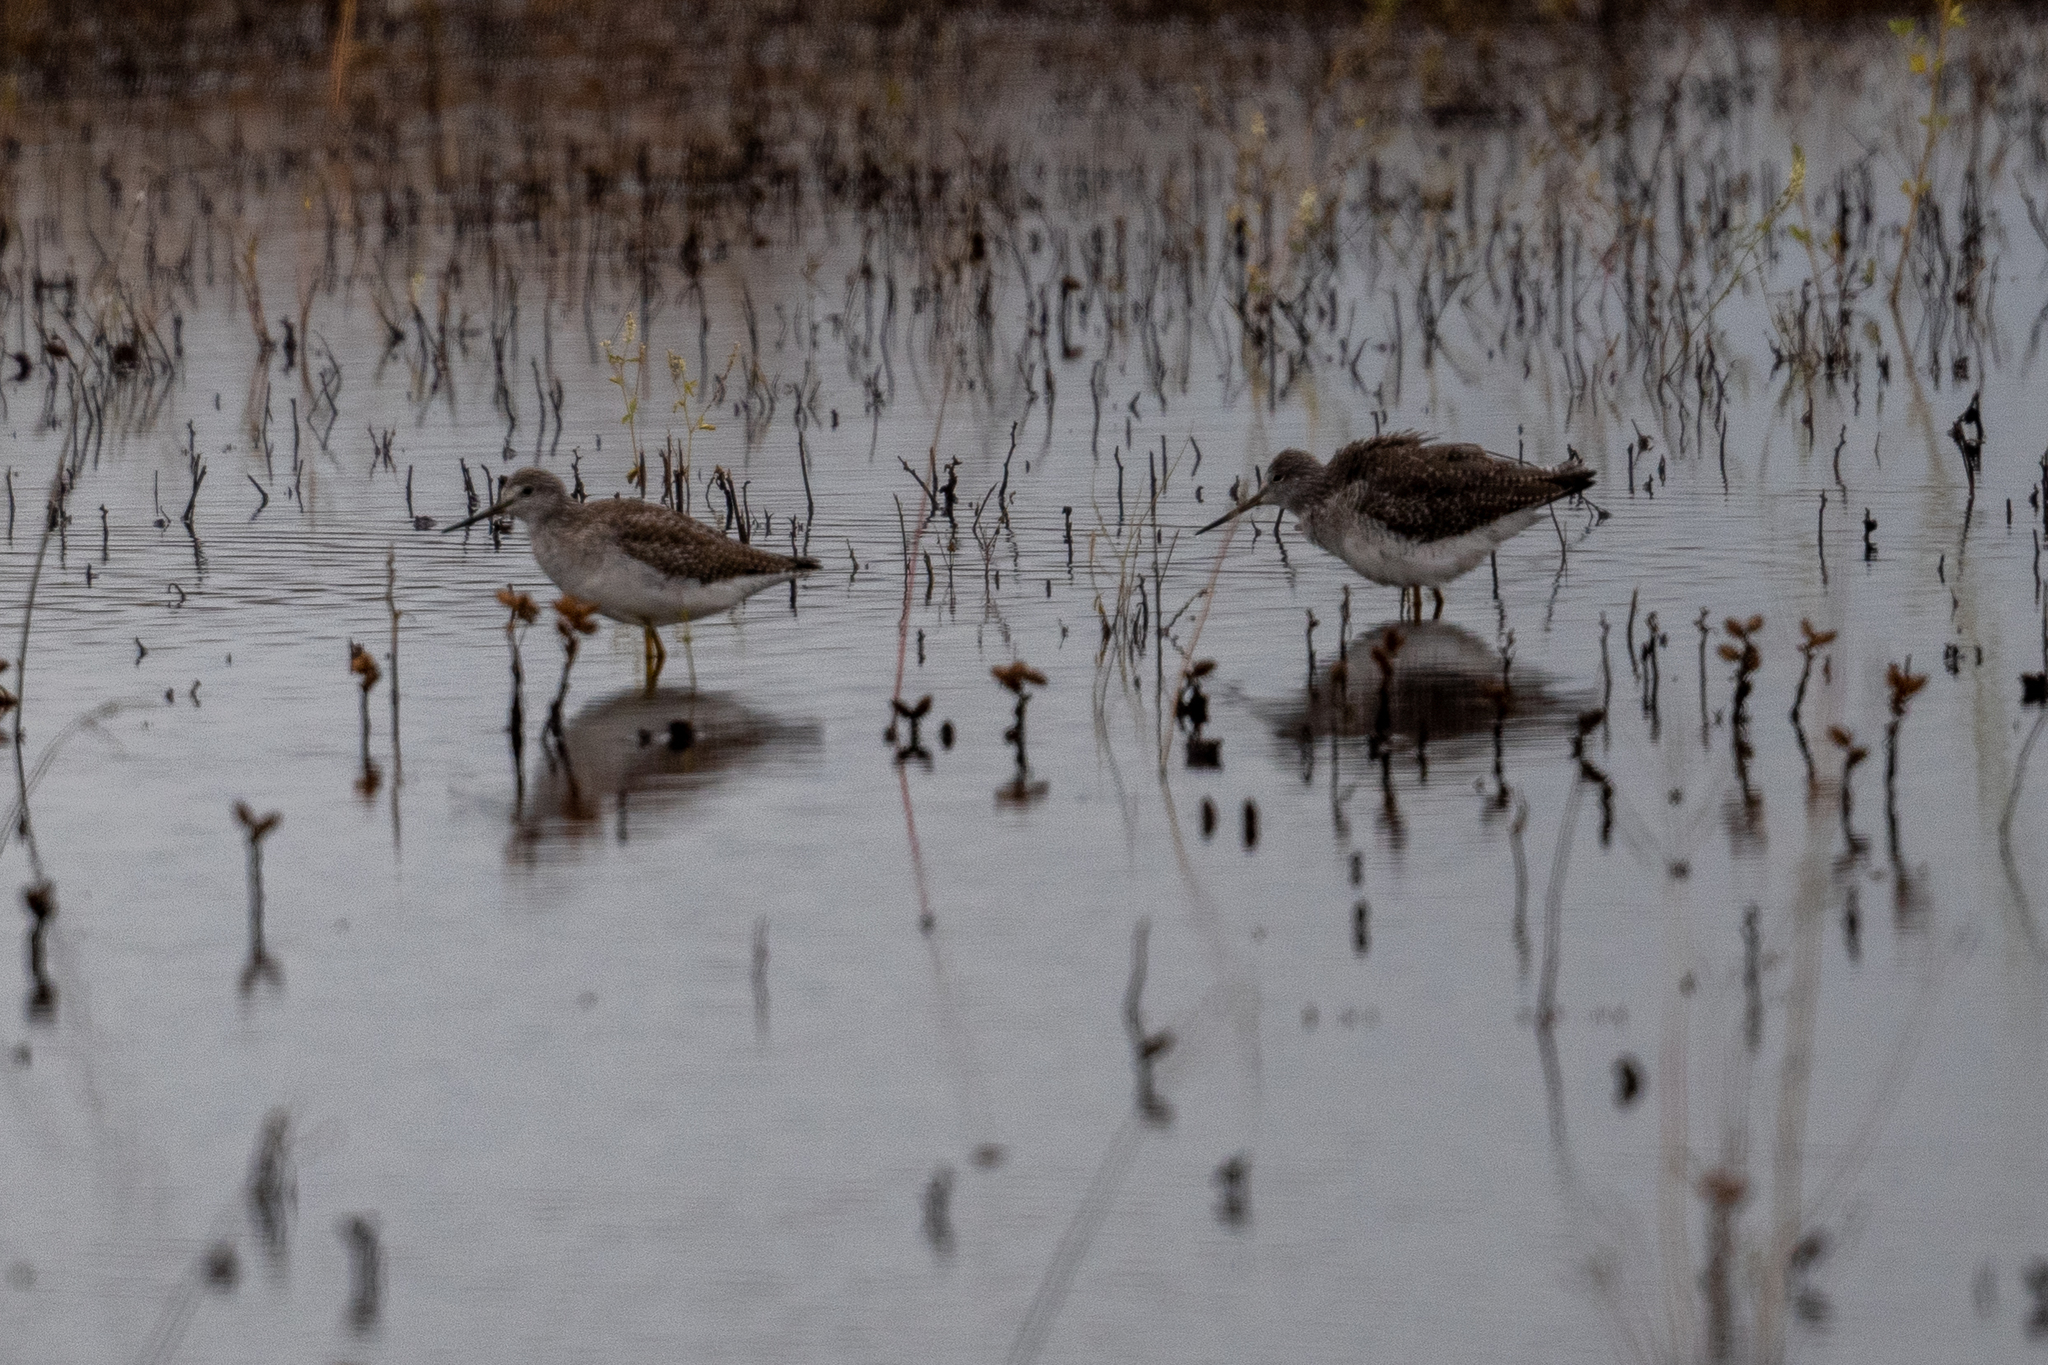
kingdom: Animalia
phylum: Chordata
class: Aves
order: Charadriiformes
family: Scolopacidae
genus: Tringa
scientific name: Tringa melanoleuca
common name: Greater yellowlegs
